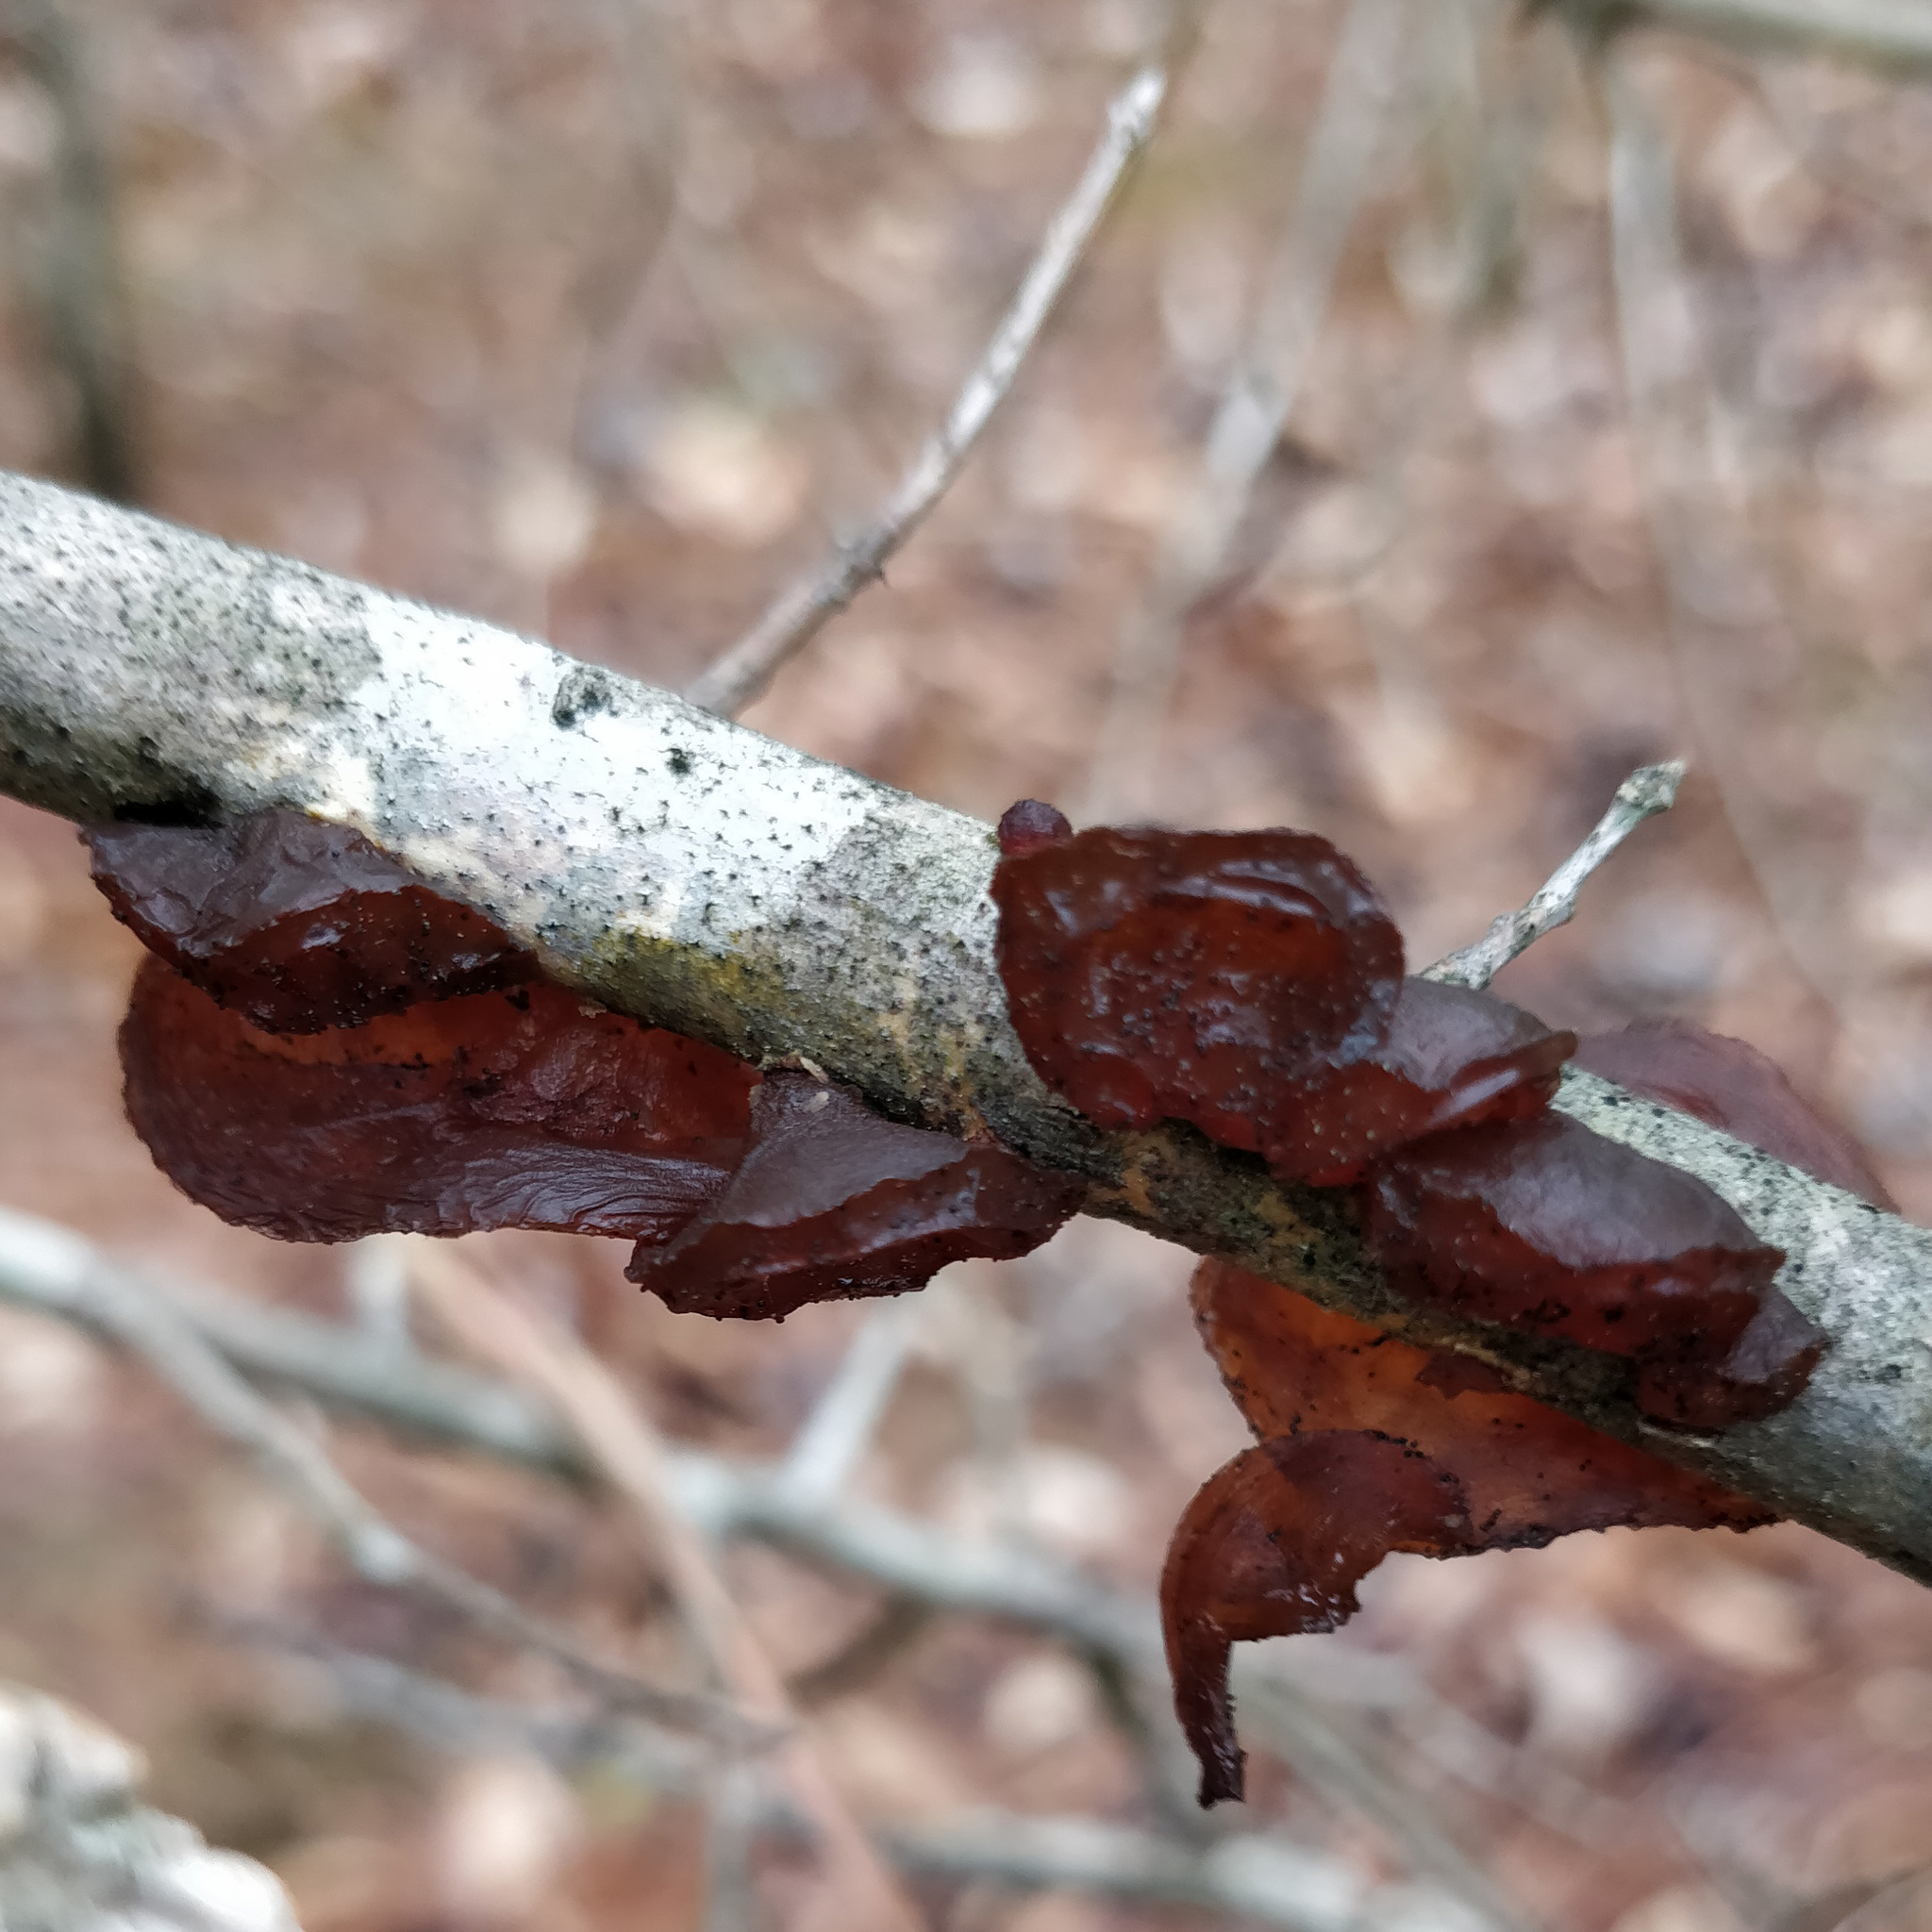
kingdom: Fungi
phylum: Basidiomycota
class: Agaricomycetes
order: Auriculariales
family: Auriculariaceae
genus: Exidia
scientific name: Exidia
